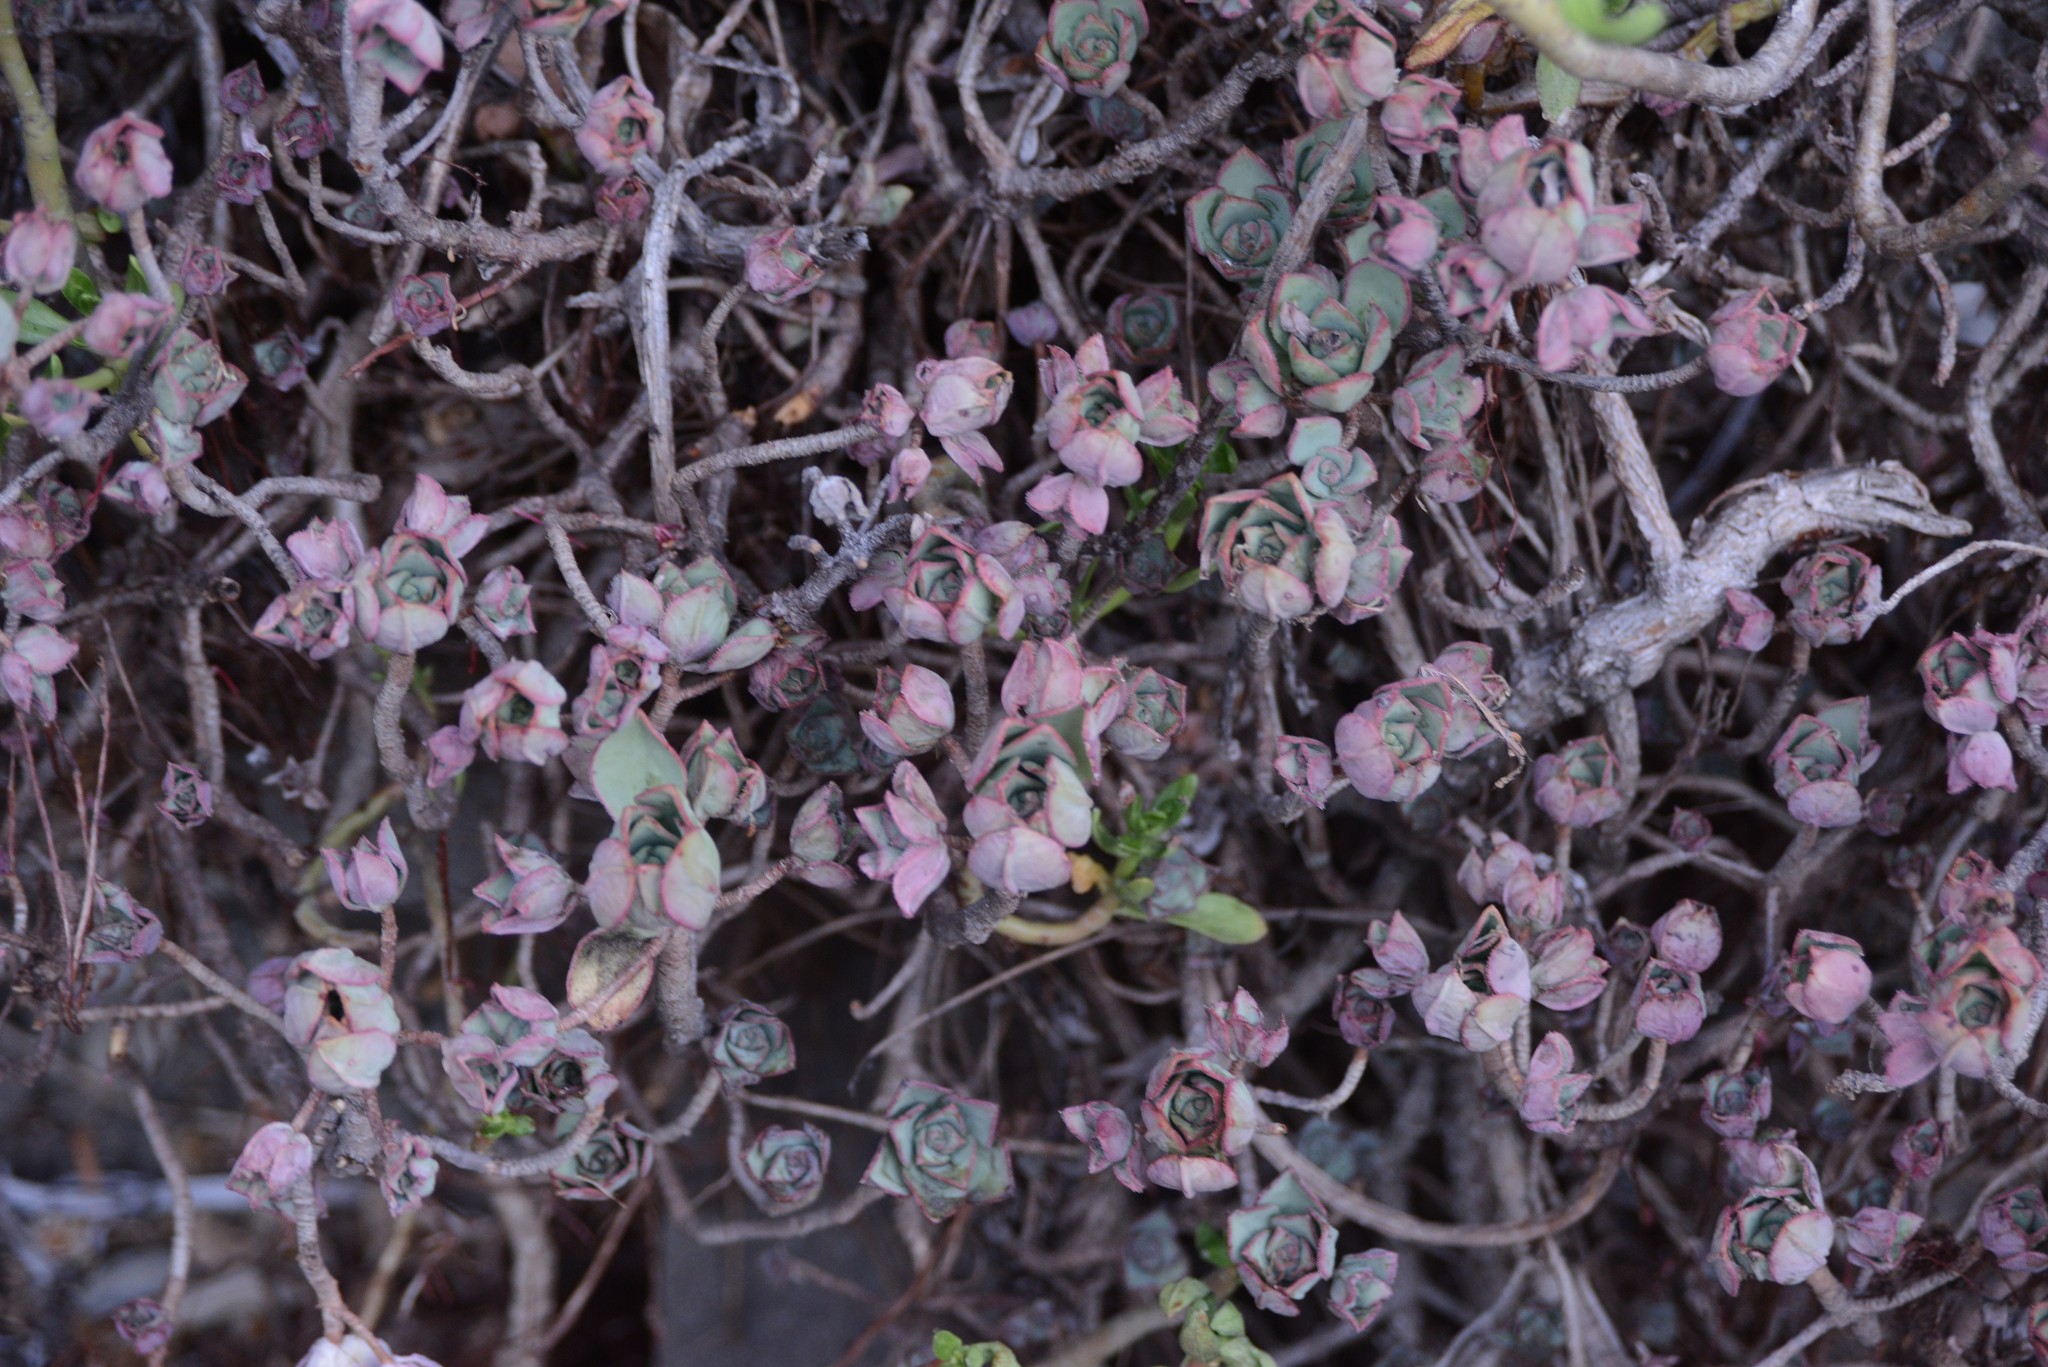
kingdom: Plantae
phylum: Tracheophyta
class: Magnoliopsida
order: Saxifragales
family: Crassulaceae
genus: Aeonium
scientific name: Aeonium haworthii
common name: Haworth's aeonium
